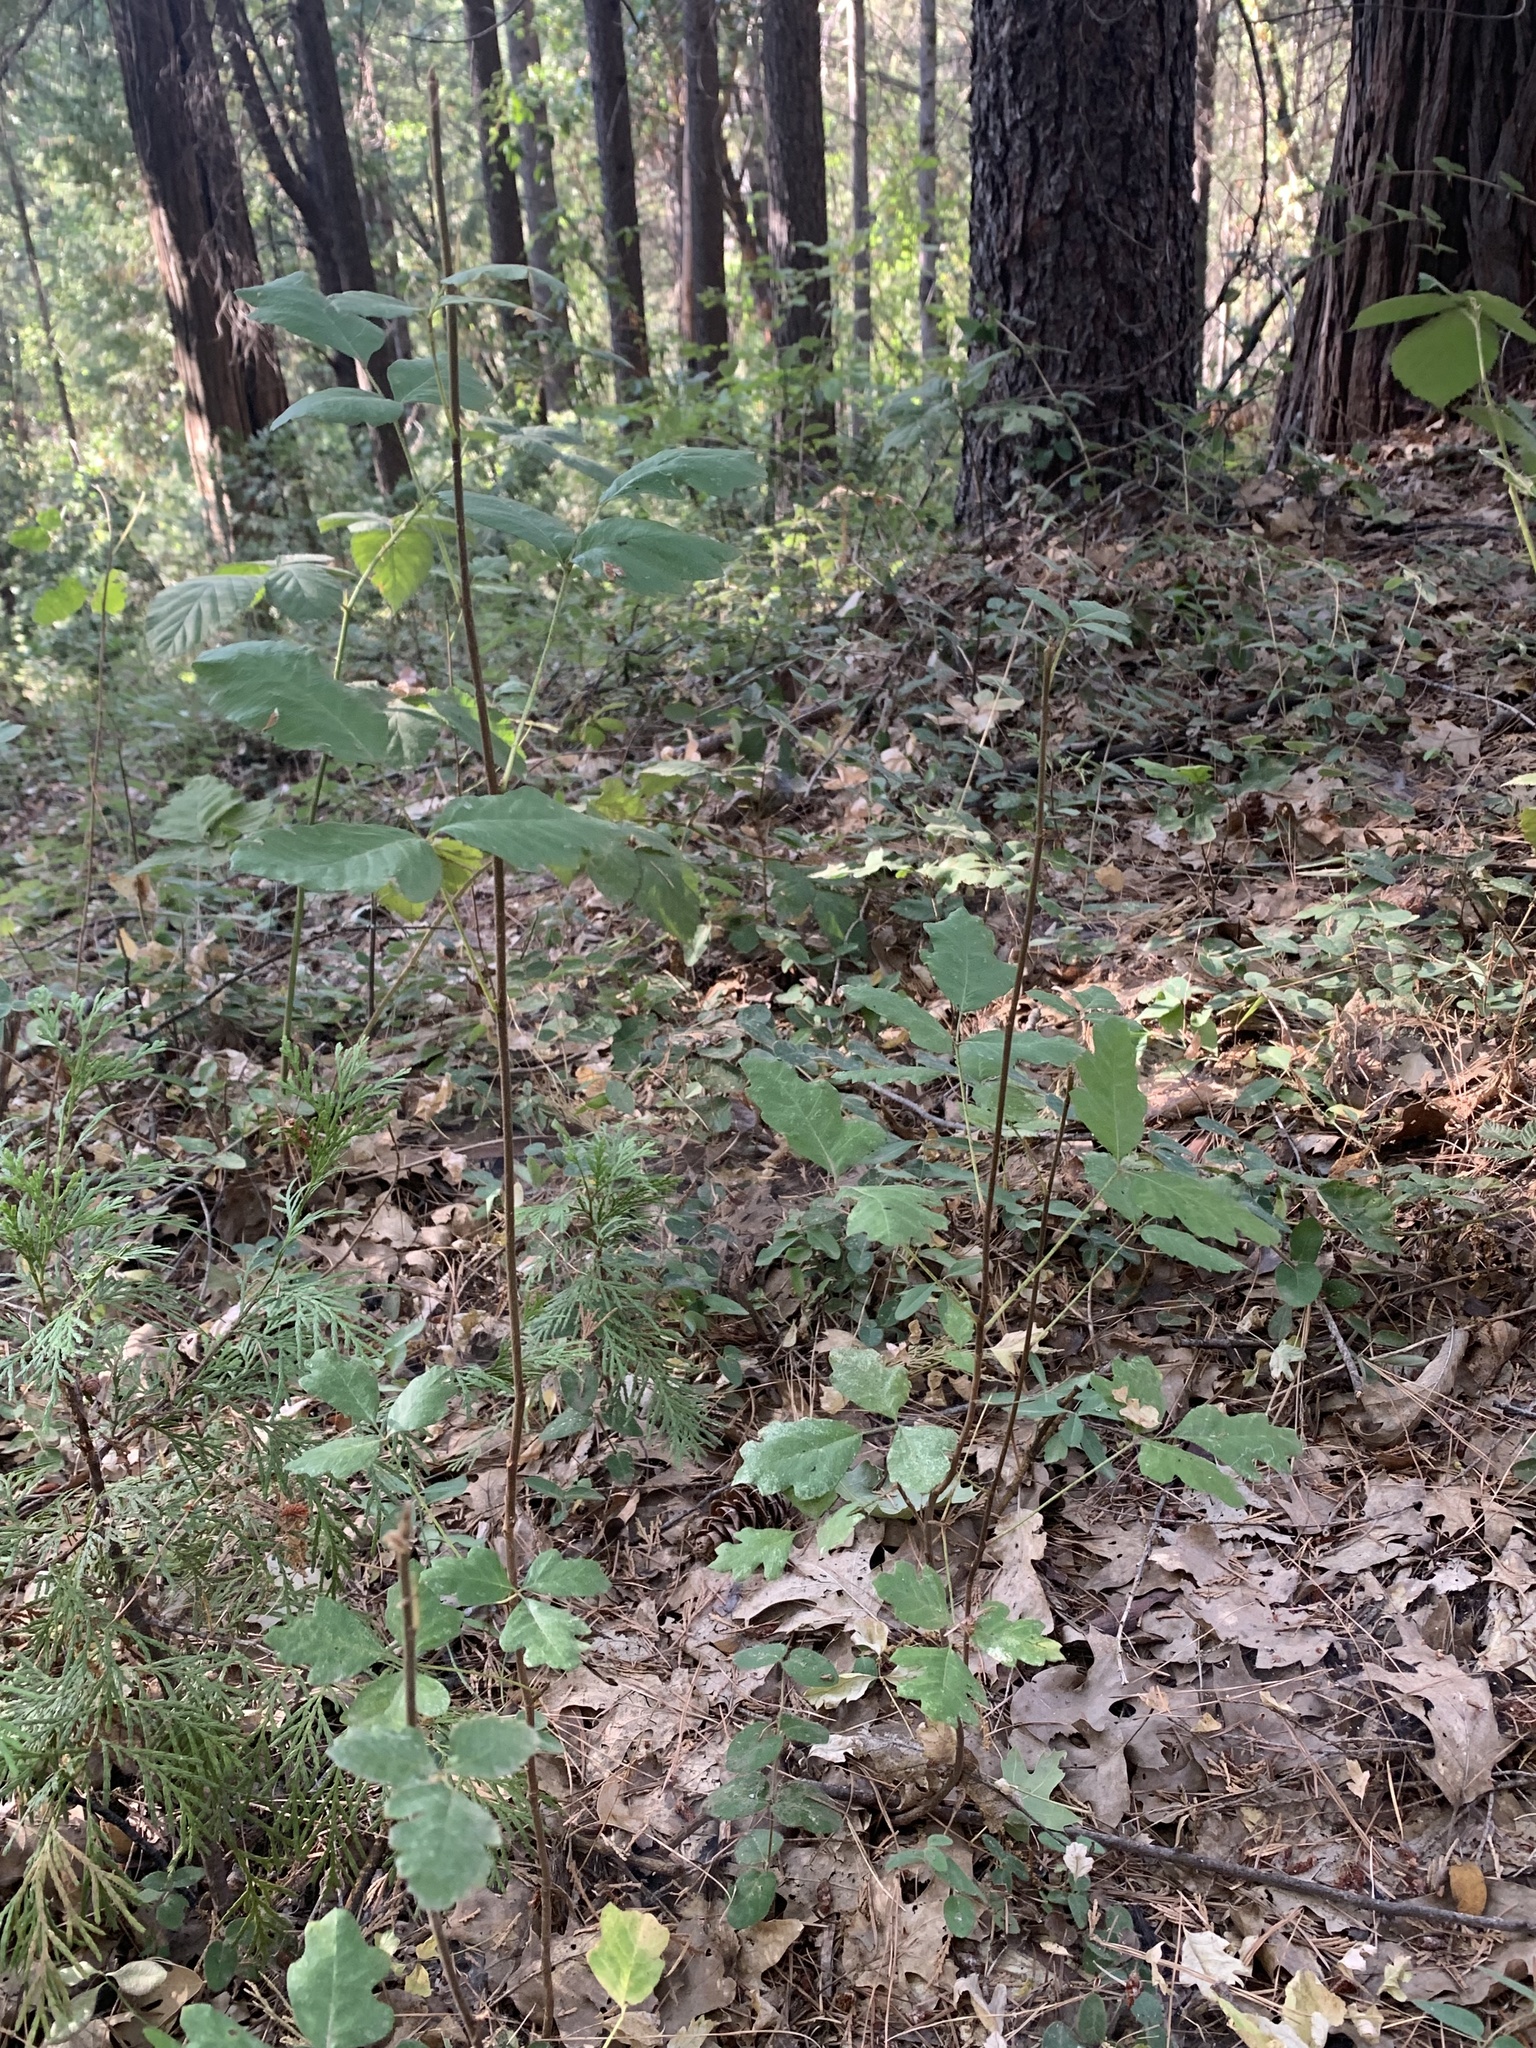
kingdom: Plantae
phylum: Tracheophyta
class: Magnoliopsida
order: Sapindales
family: Anacardiaceae
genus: Toxicodendron
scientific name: Toxicodendron diversilobum
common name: Pacific poison-oak
